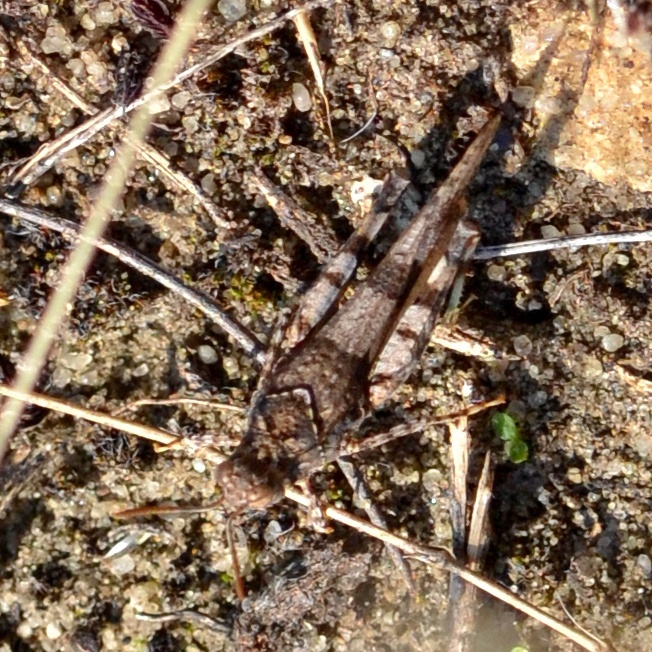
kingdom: Animalia
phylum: Arthropoda
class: Insecta
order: Orthoptera
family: Acrididae
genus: Oedipoda
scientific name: Oedipoda caerulescens
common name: Blue-winged grasshopper
